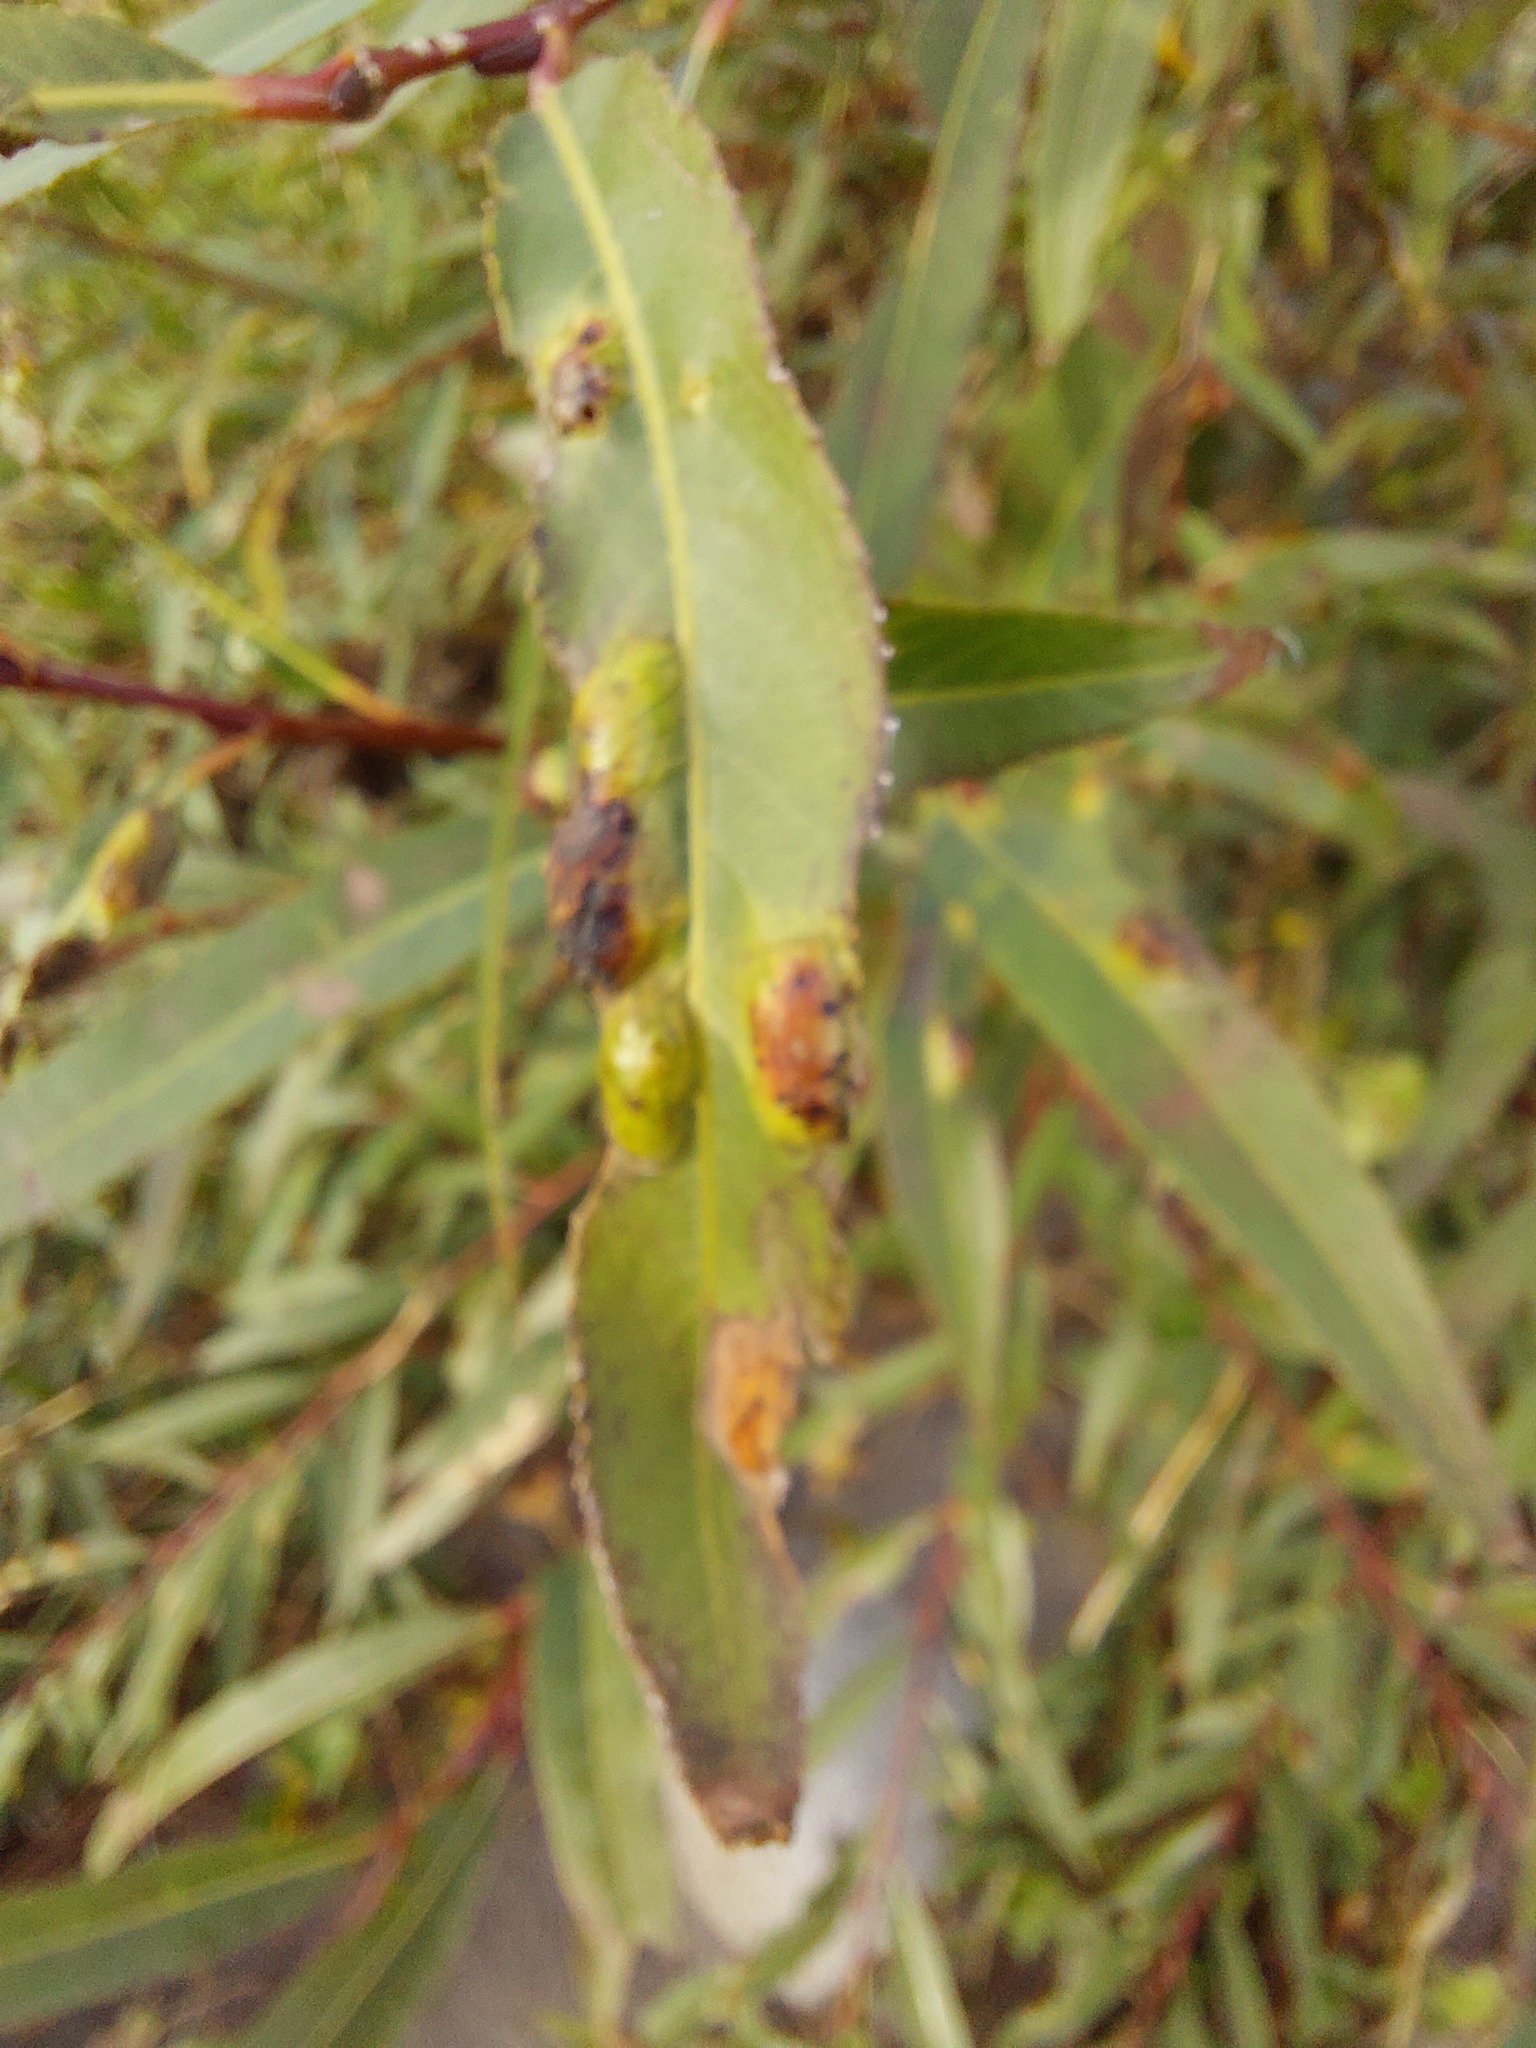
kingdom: Animalia
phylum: Arthropoda
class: Insecta
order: Hymenoptera
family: Tenthredinidae
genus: Pontania
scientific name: Pontania proxima
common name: Common sawfly
